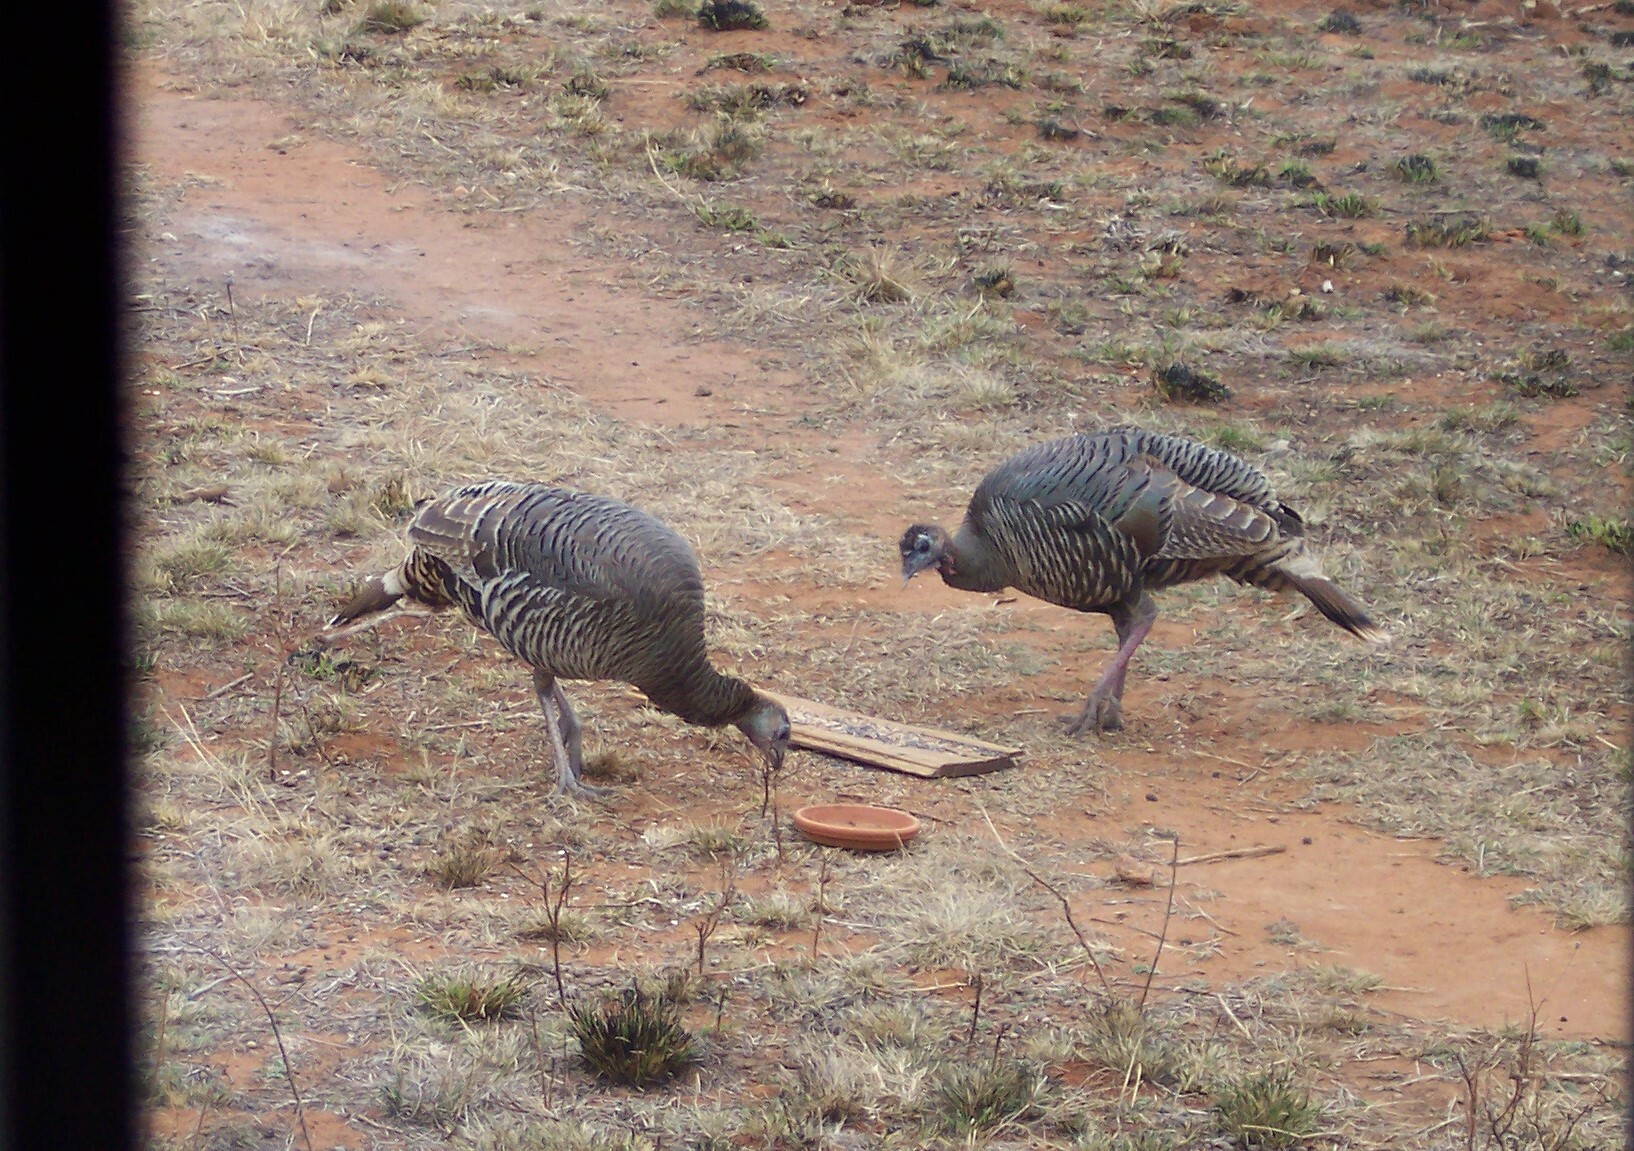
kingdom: Animalia
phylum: Chordata
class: Aves
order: Galliformes
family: Phasianidae
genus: Meleagris
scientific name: Meleagris gallopavo
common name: Wild turkey
